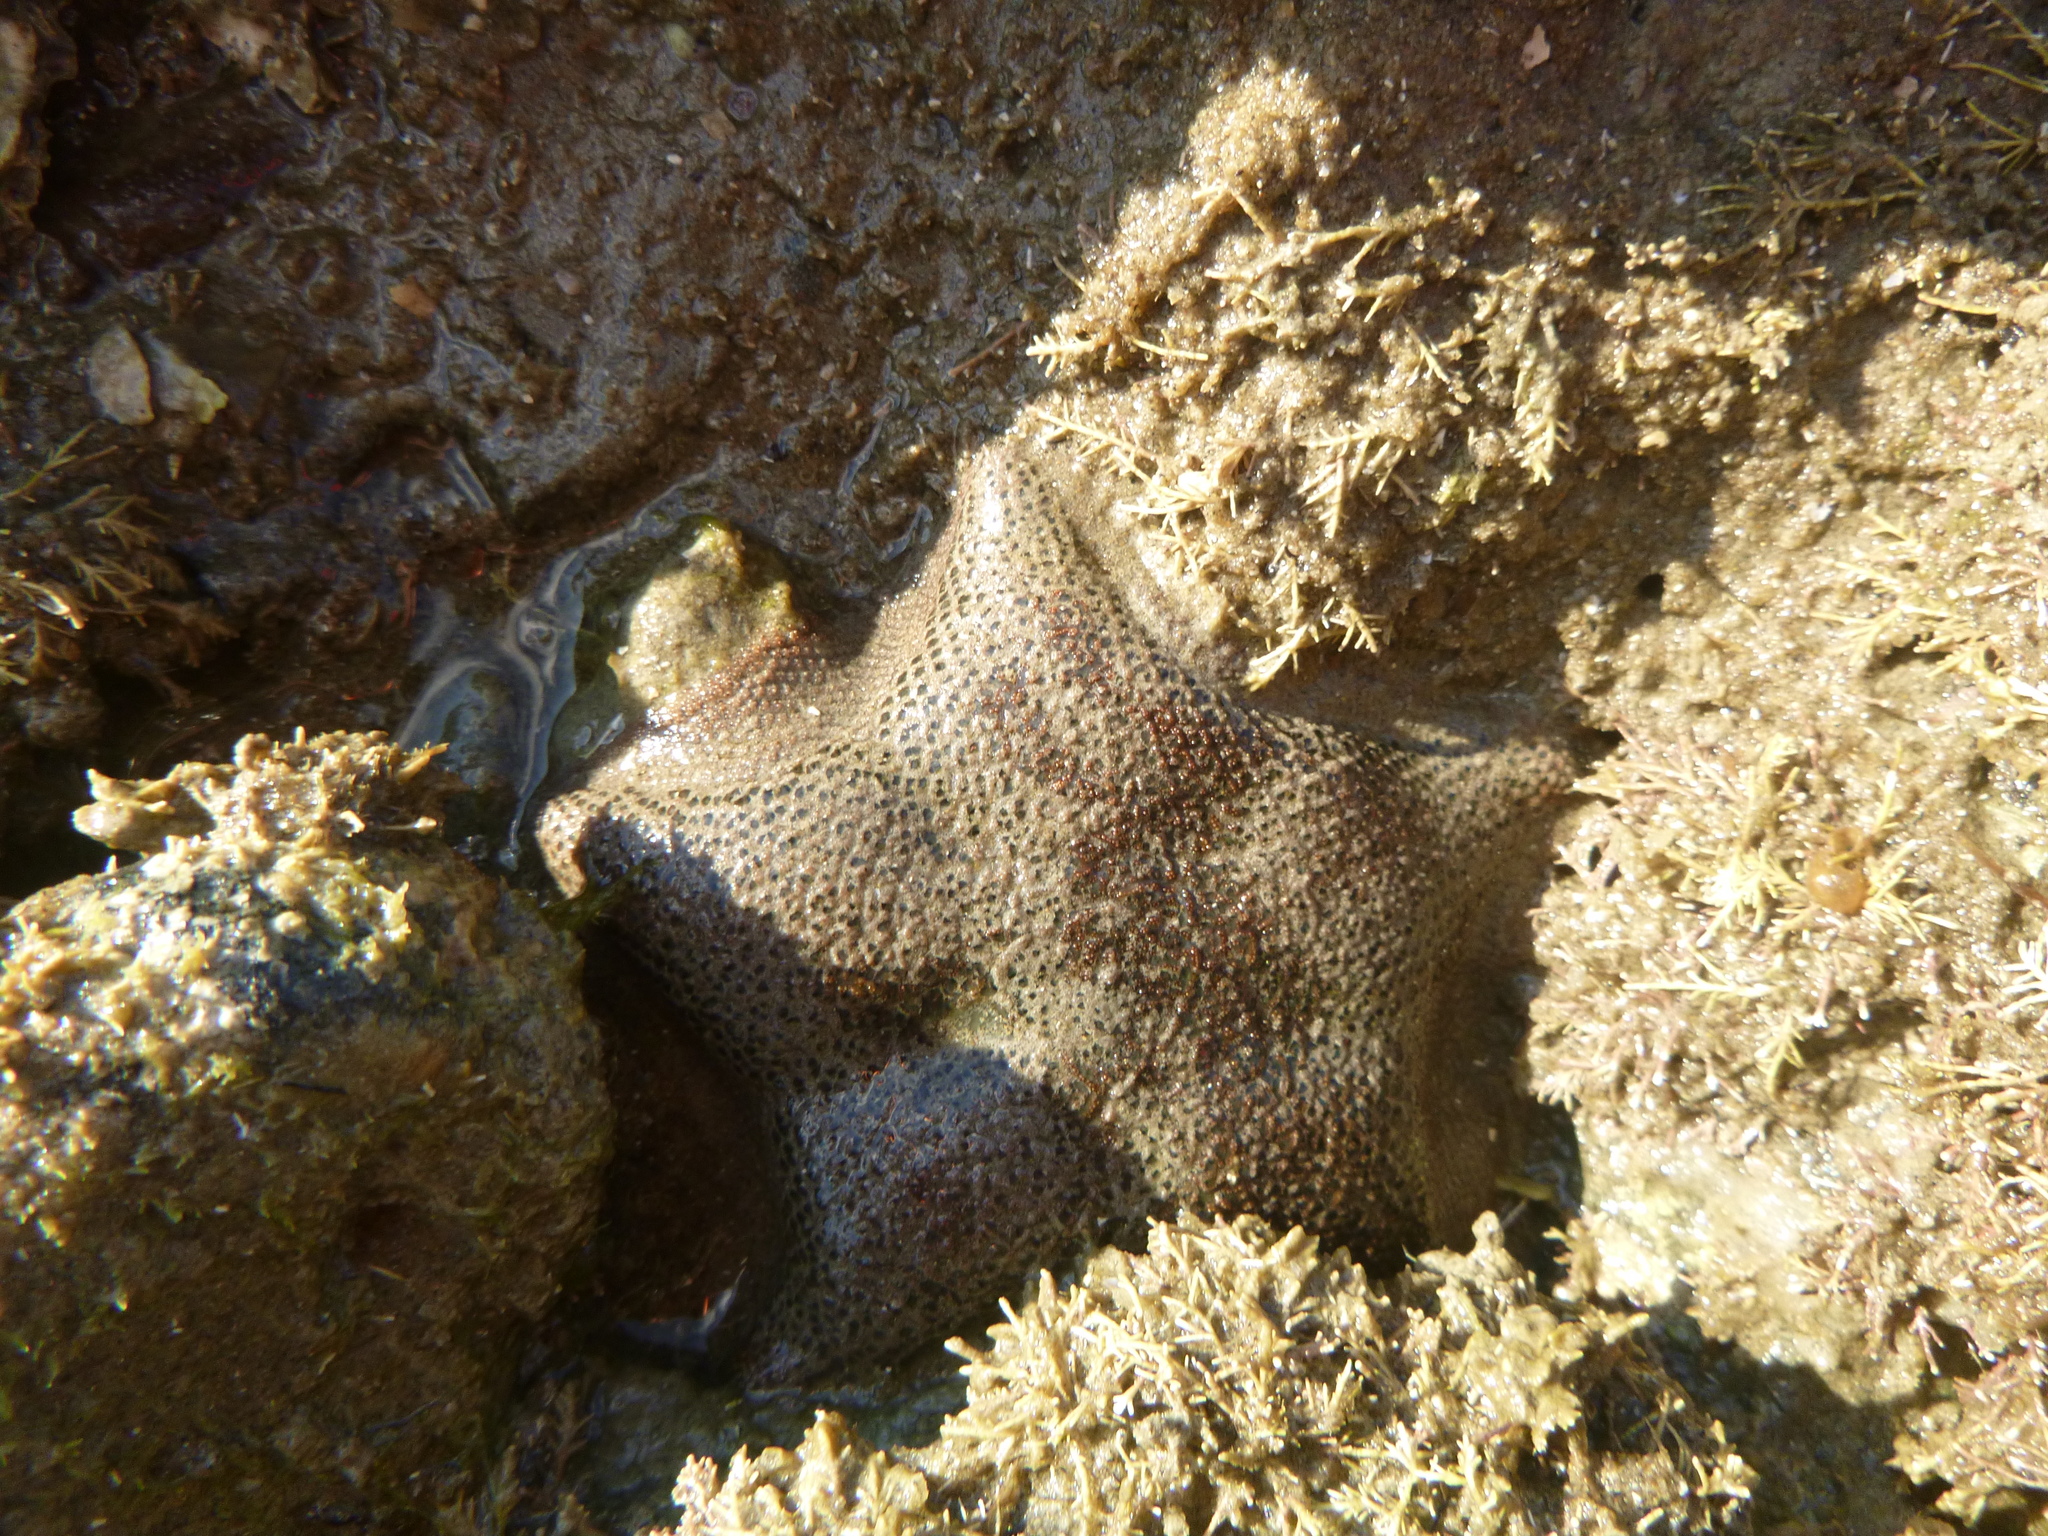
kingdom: Animalia
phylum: Echinodermata
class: Asteroidea
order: Valvatida
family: Asterinidae
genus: Patiriella
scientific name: Patiriella regularis
